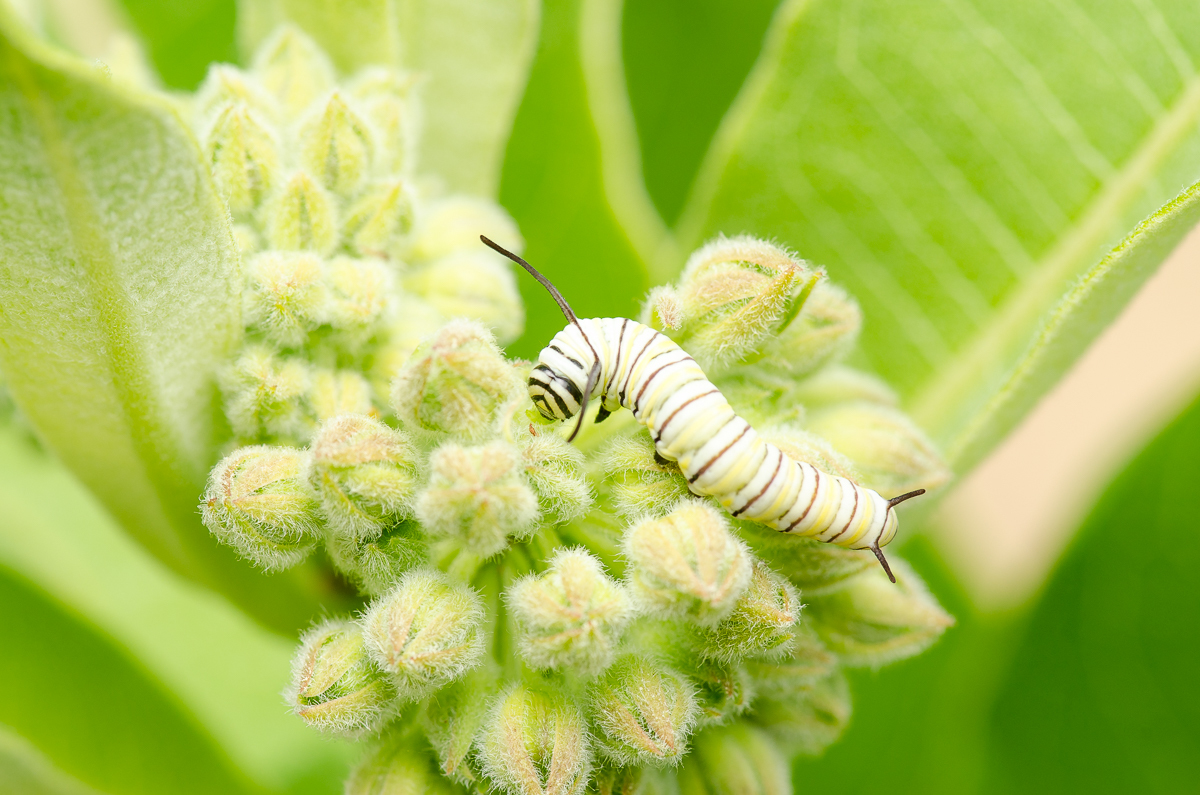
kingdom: Animalia
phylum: Arthropoda
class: Insecta
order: Lepidoptera
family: Nymphalidae
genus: Danaus
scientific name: Danaus plexippus
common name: Monarch
